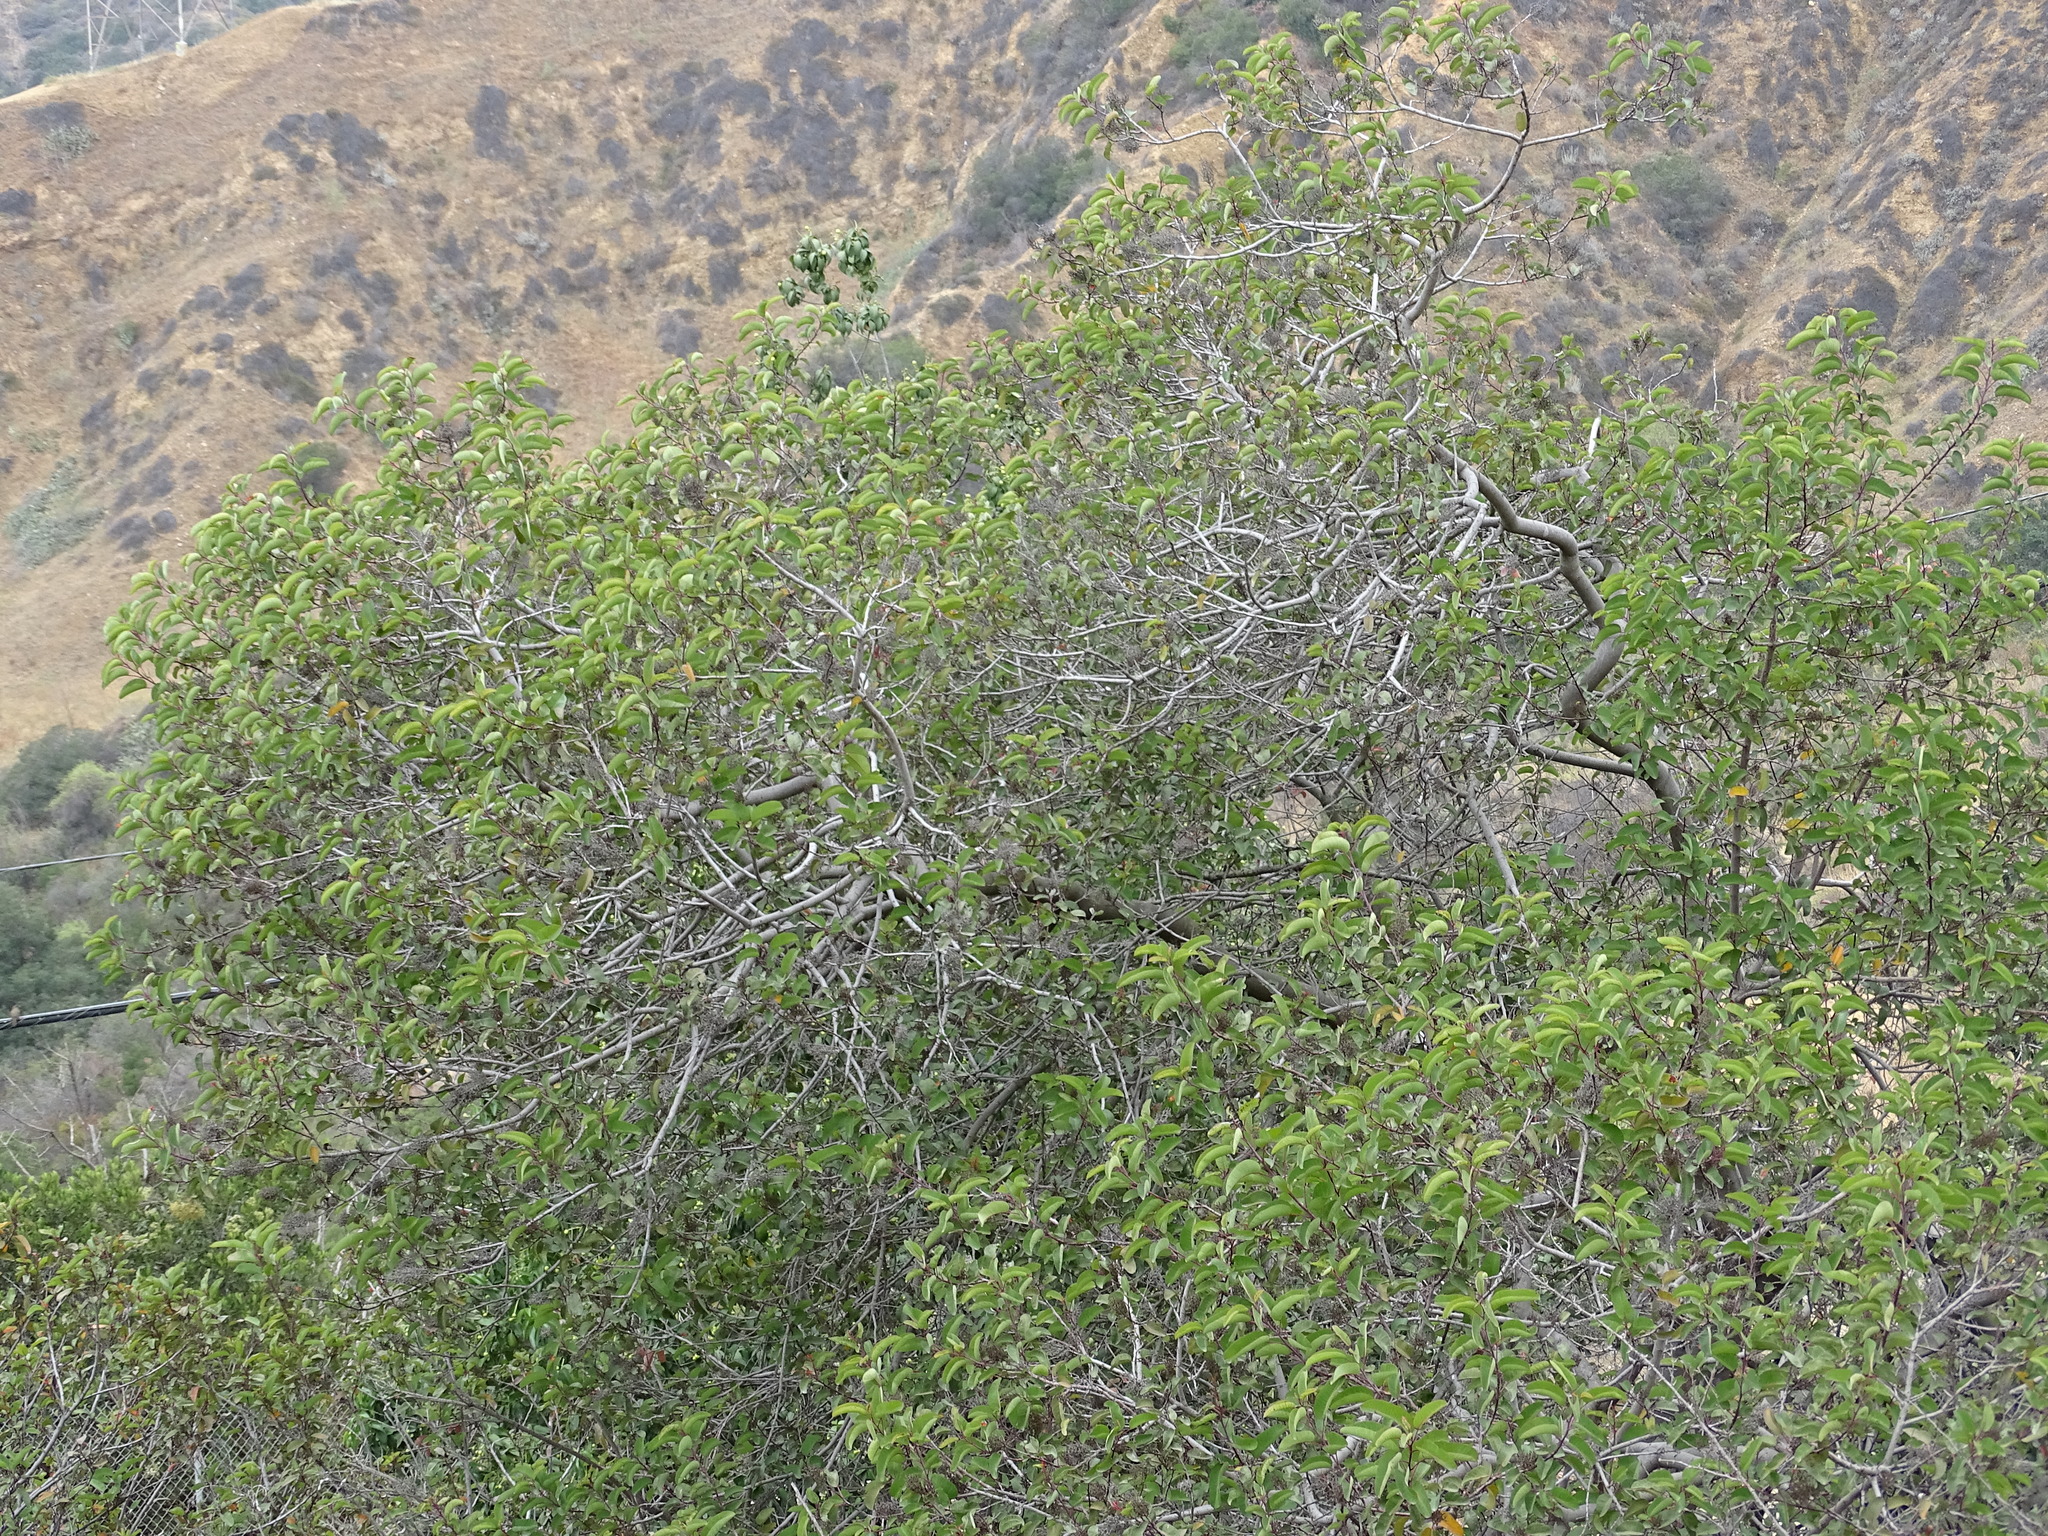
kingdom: Plantae
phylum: Tracheophyta
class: Magnoliopsida
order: Sapindales
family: Anacardiaceae
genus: Malosma
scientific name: Malosma laurina
